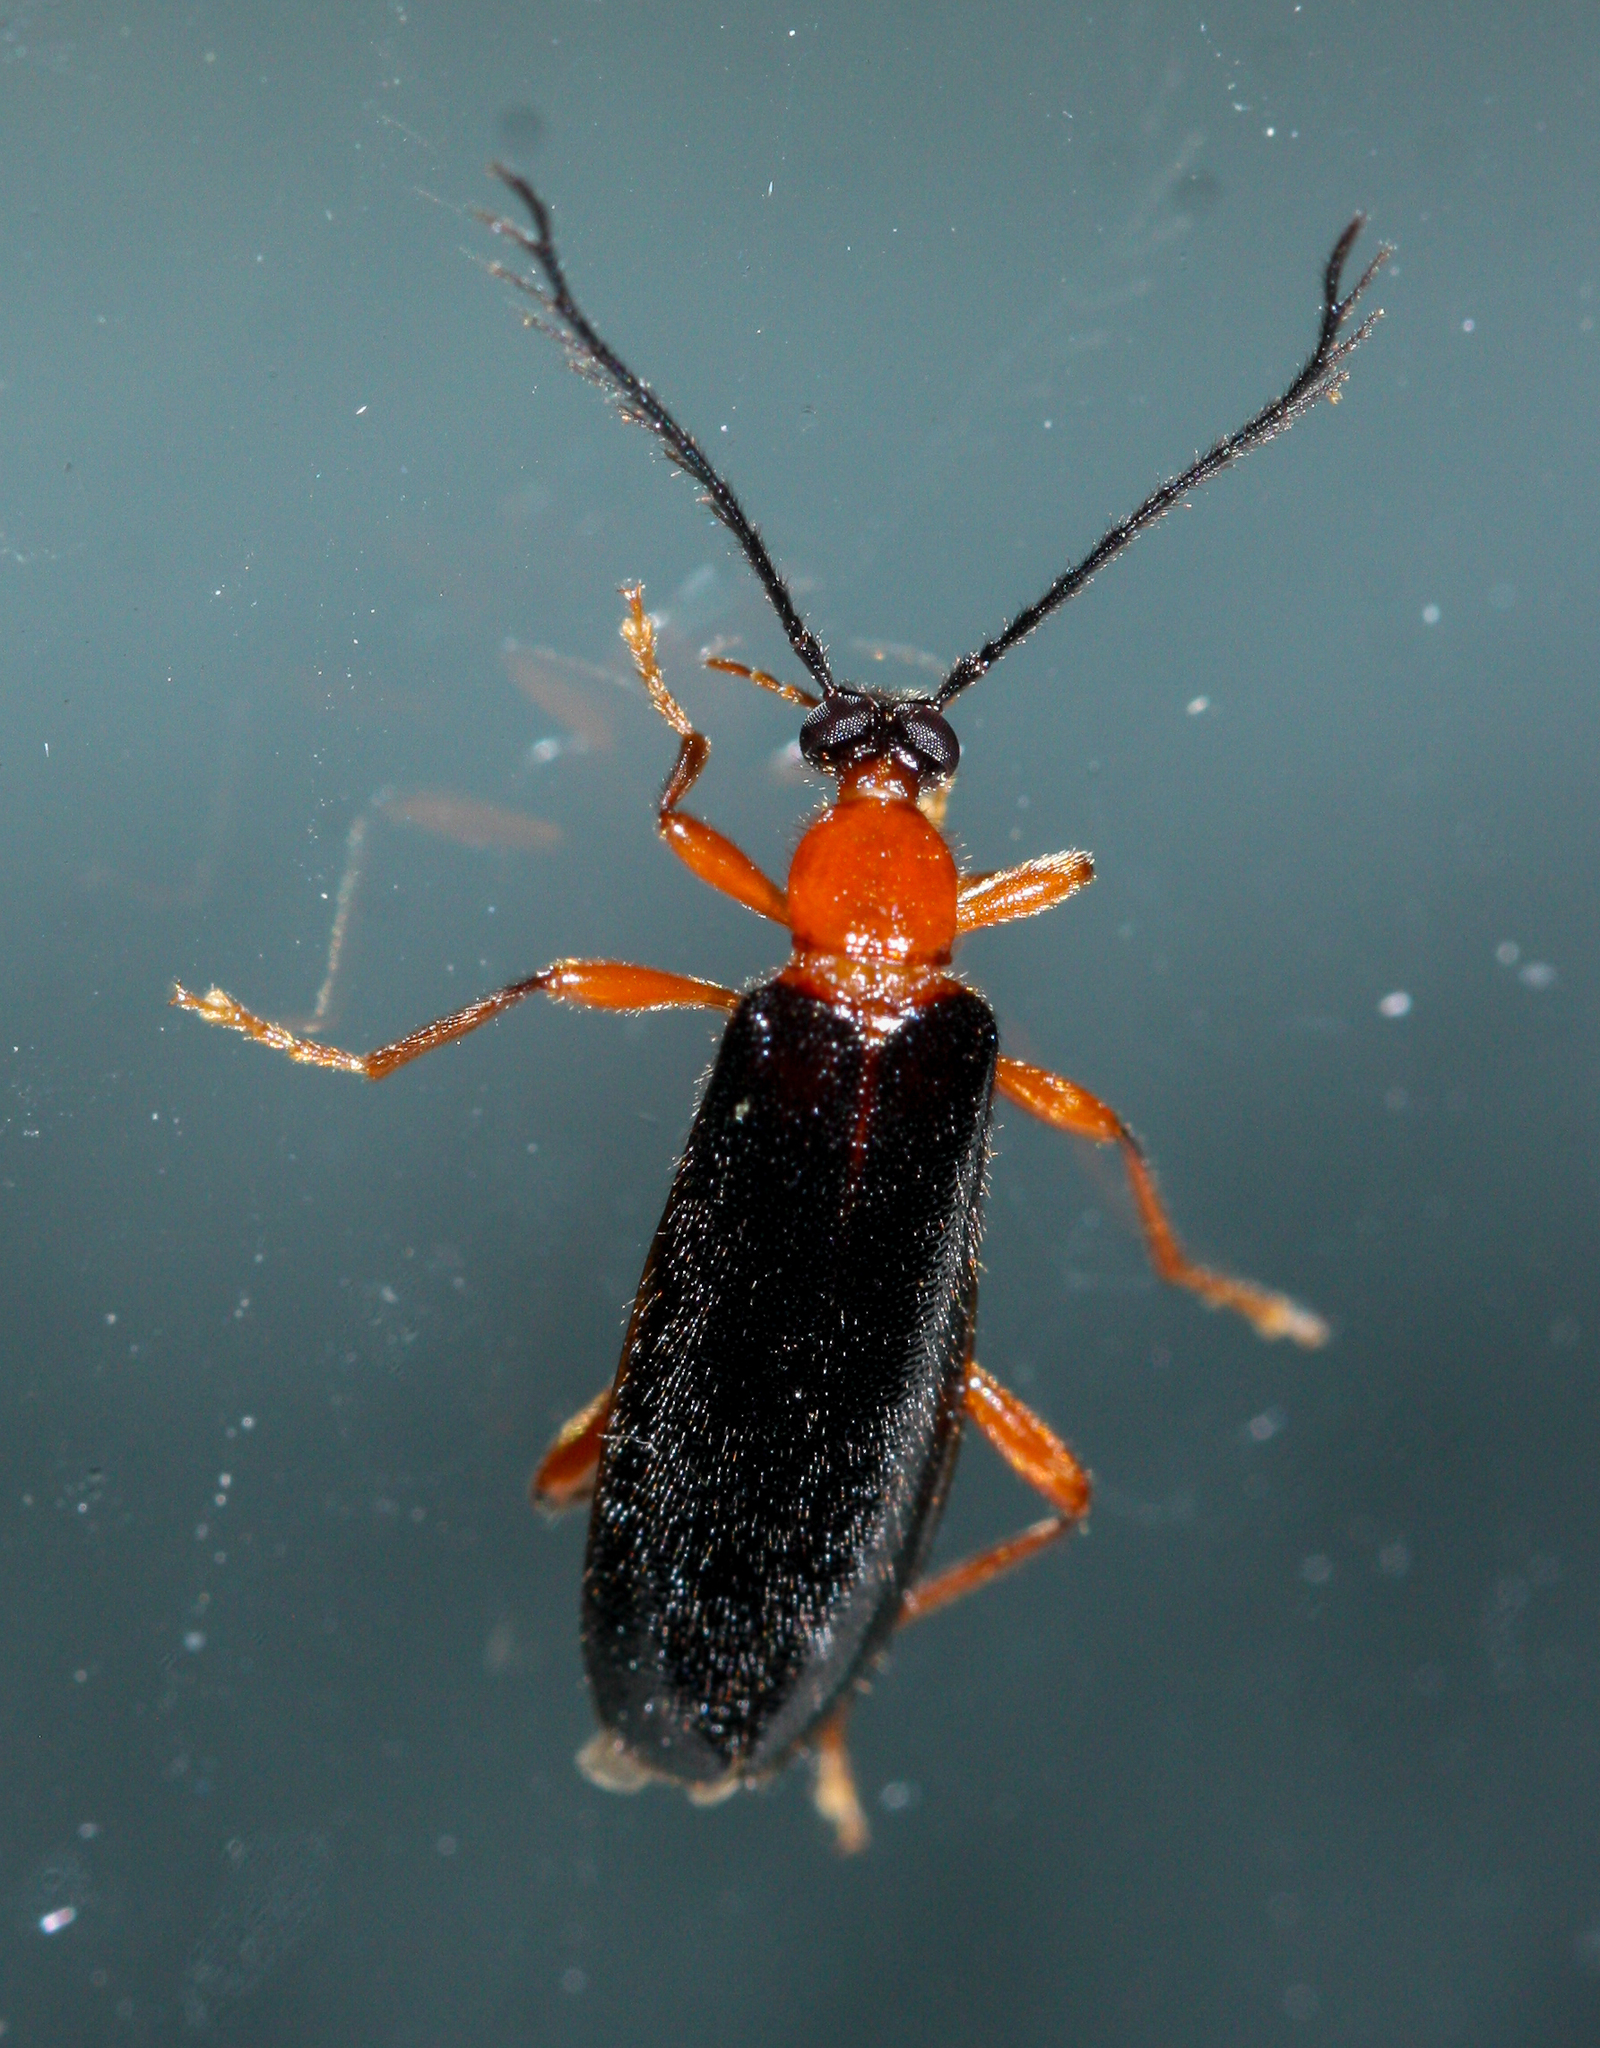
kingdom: Animalia
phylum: Arthropoda
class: Insecta
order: Coleoptera
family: Pyrochroidae
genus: Dendroides
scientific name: Dendroides canadensis
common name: Canada fire-colored beetle
